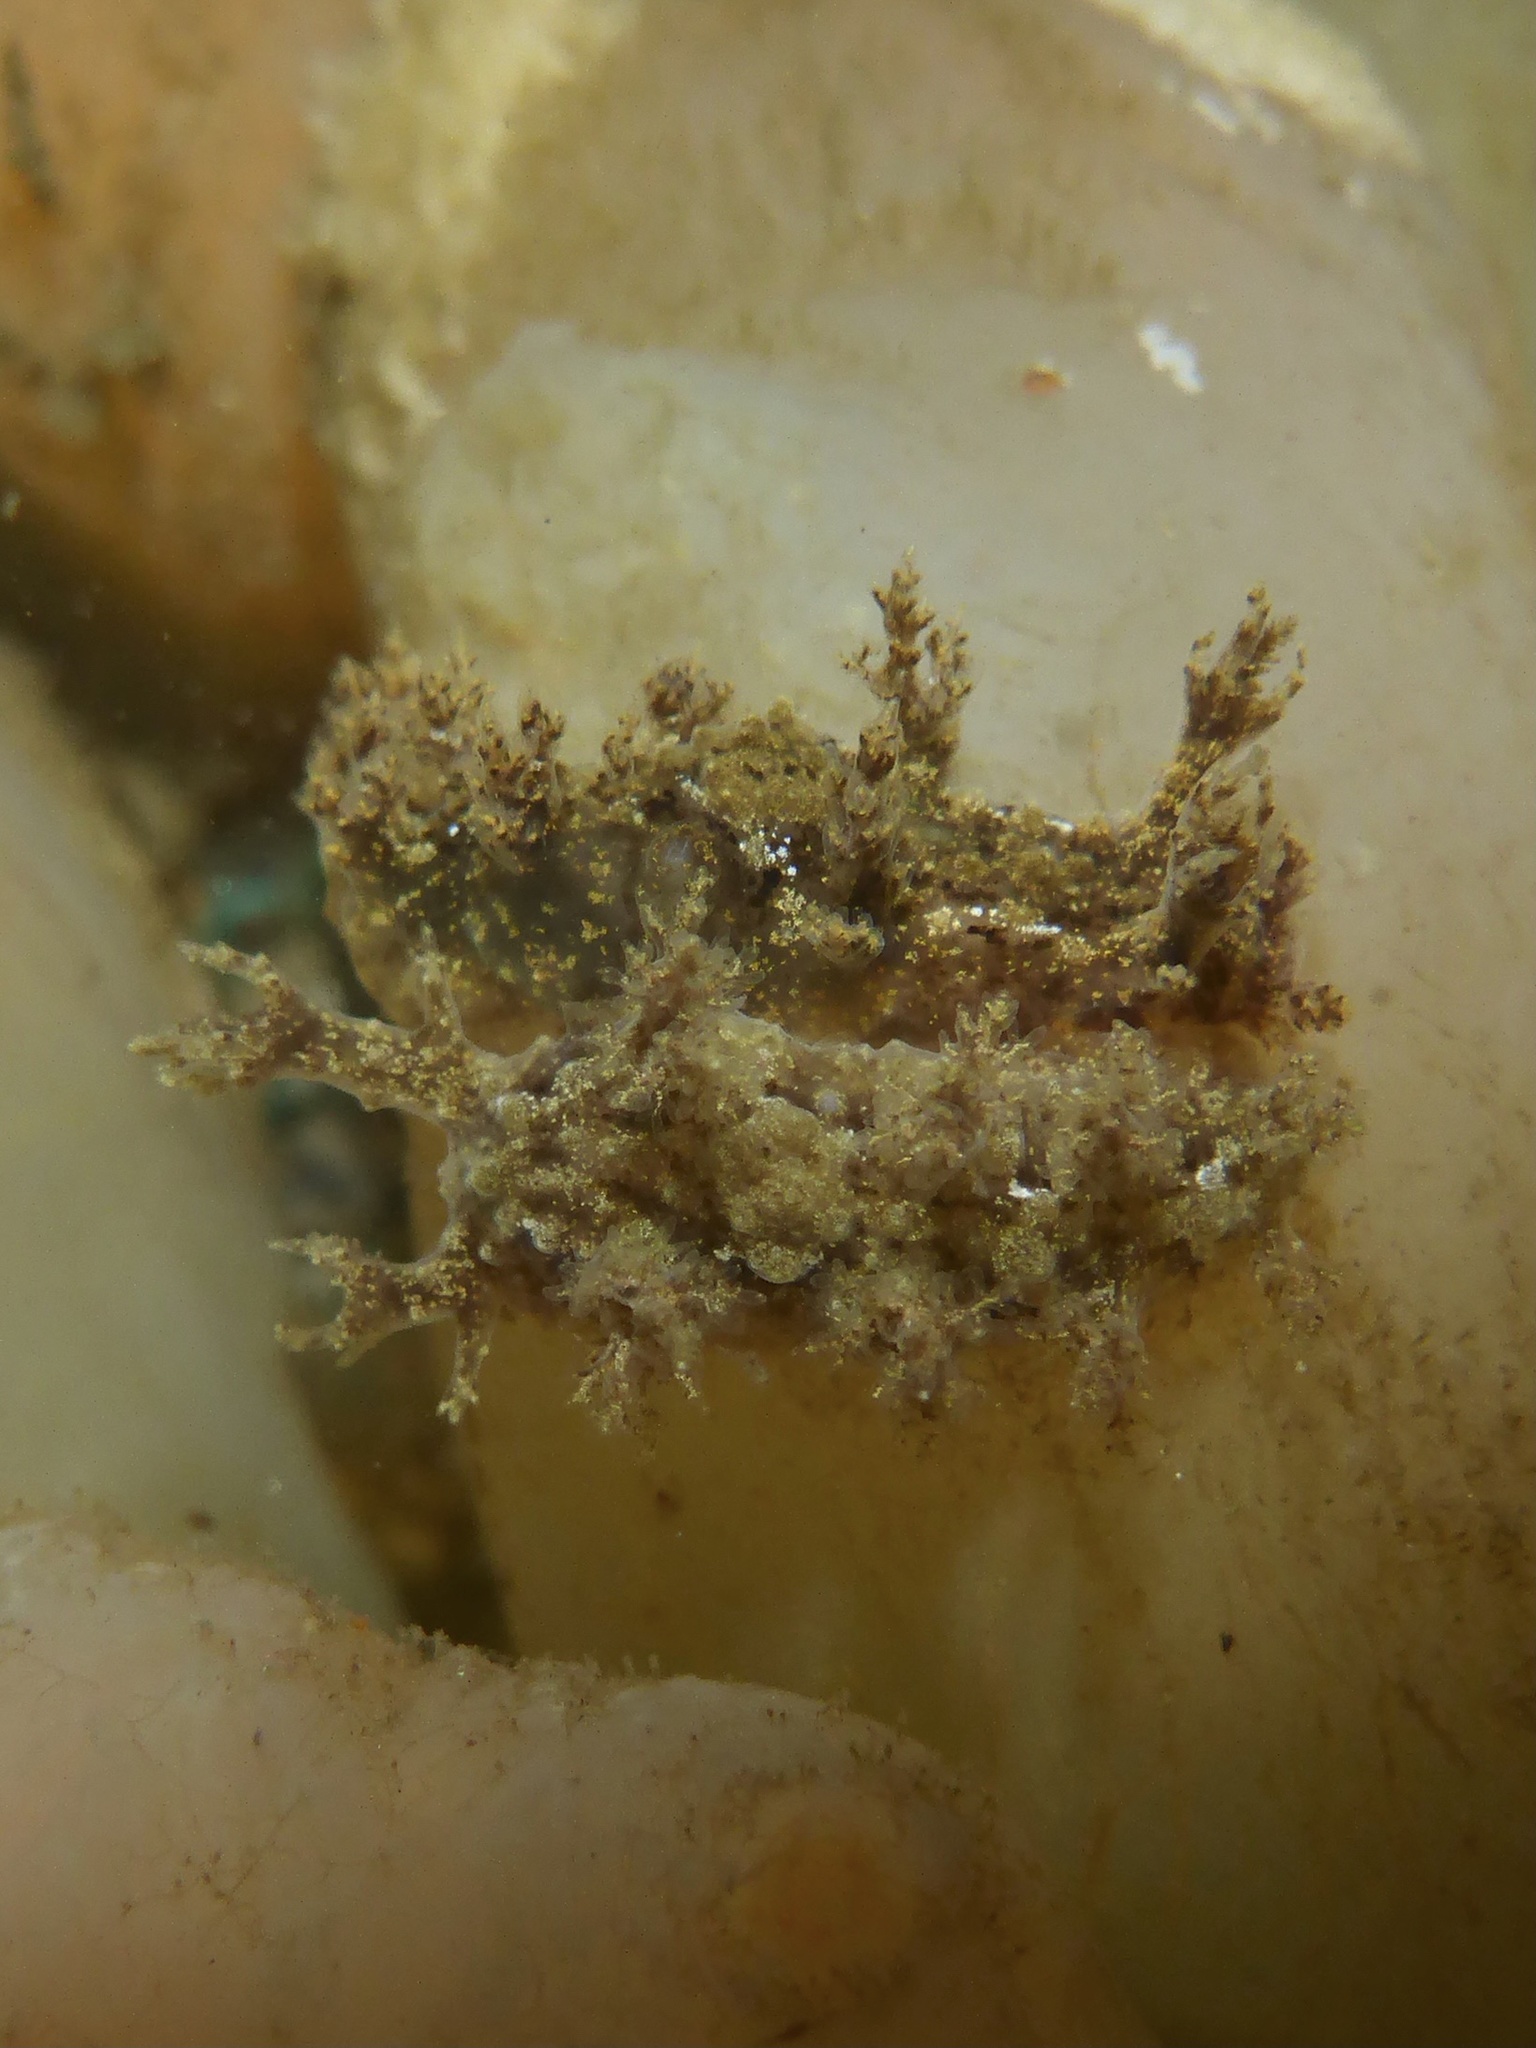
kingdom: Animalia
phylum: Mollusca
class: Gastropoda
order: Nudibranchia
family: Dendronotidae
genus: Dendronotus
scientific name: Dendronotus venustus
